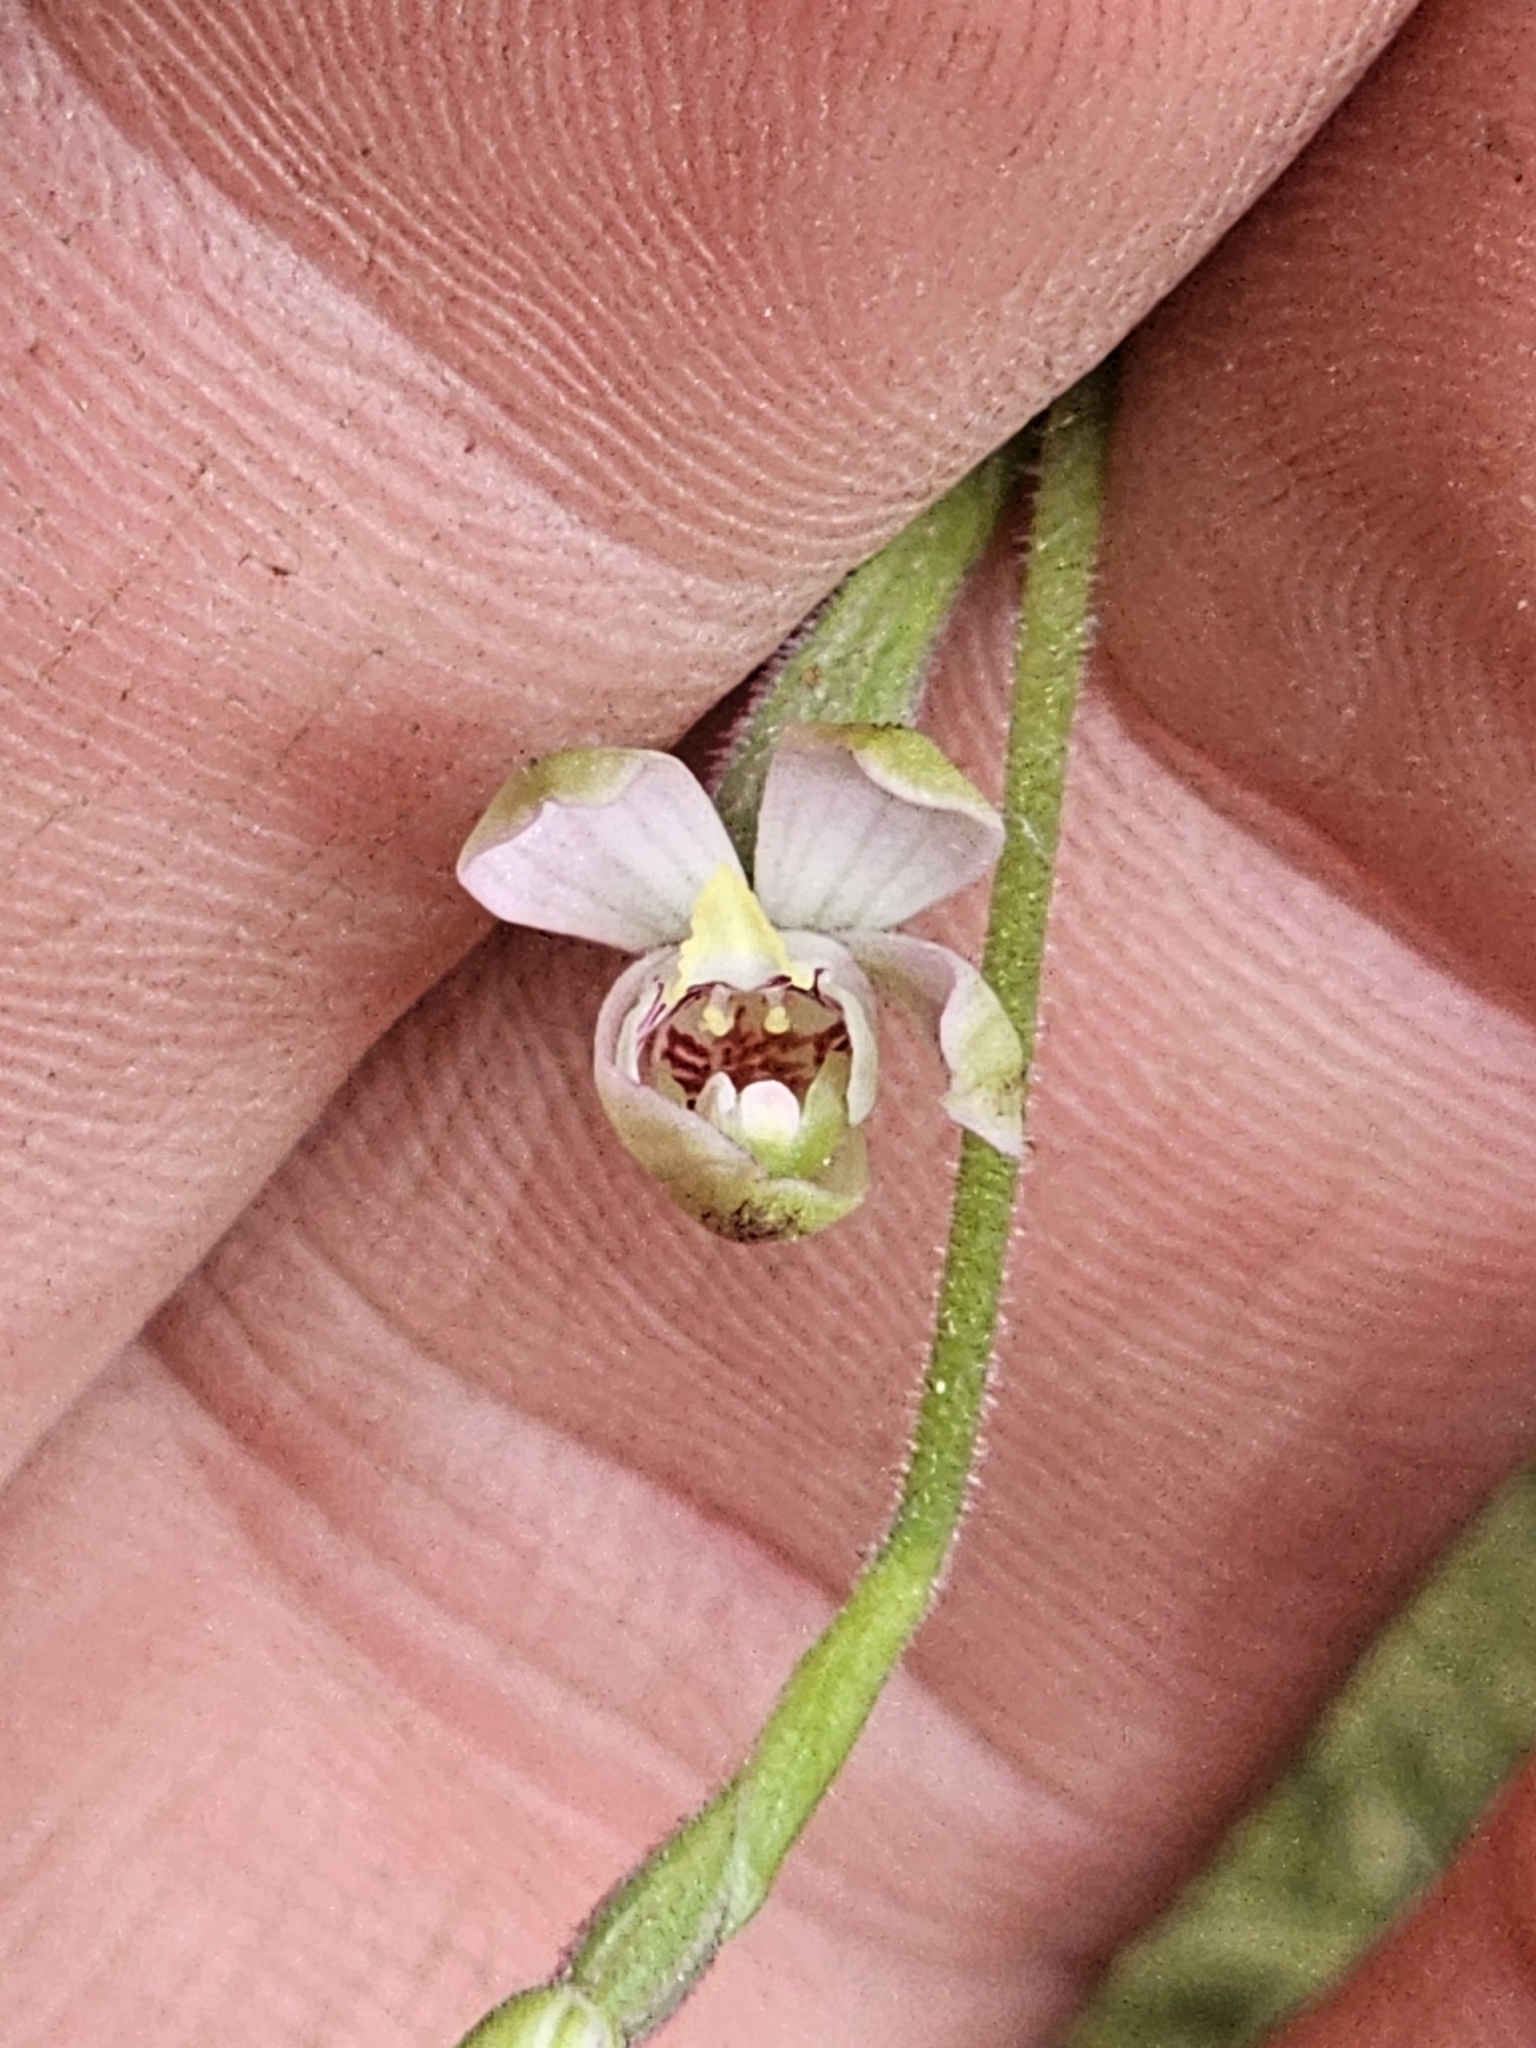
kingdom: Plantae
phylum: Tracheophyta
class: Liliopsida
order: Asparagales
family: Orchidaceae
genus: Caladenia
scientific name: Caladenia variegata
